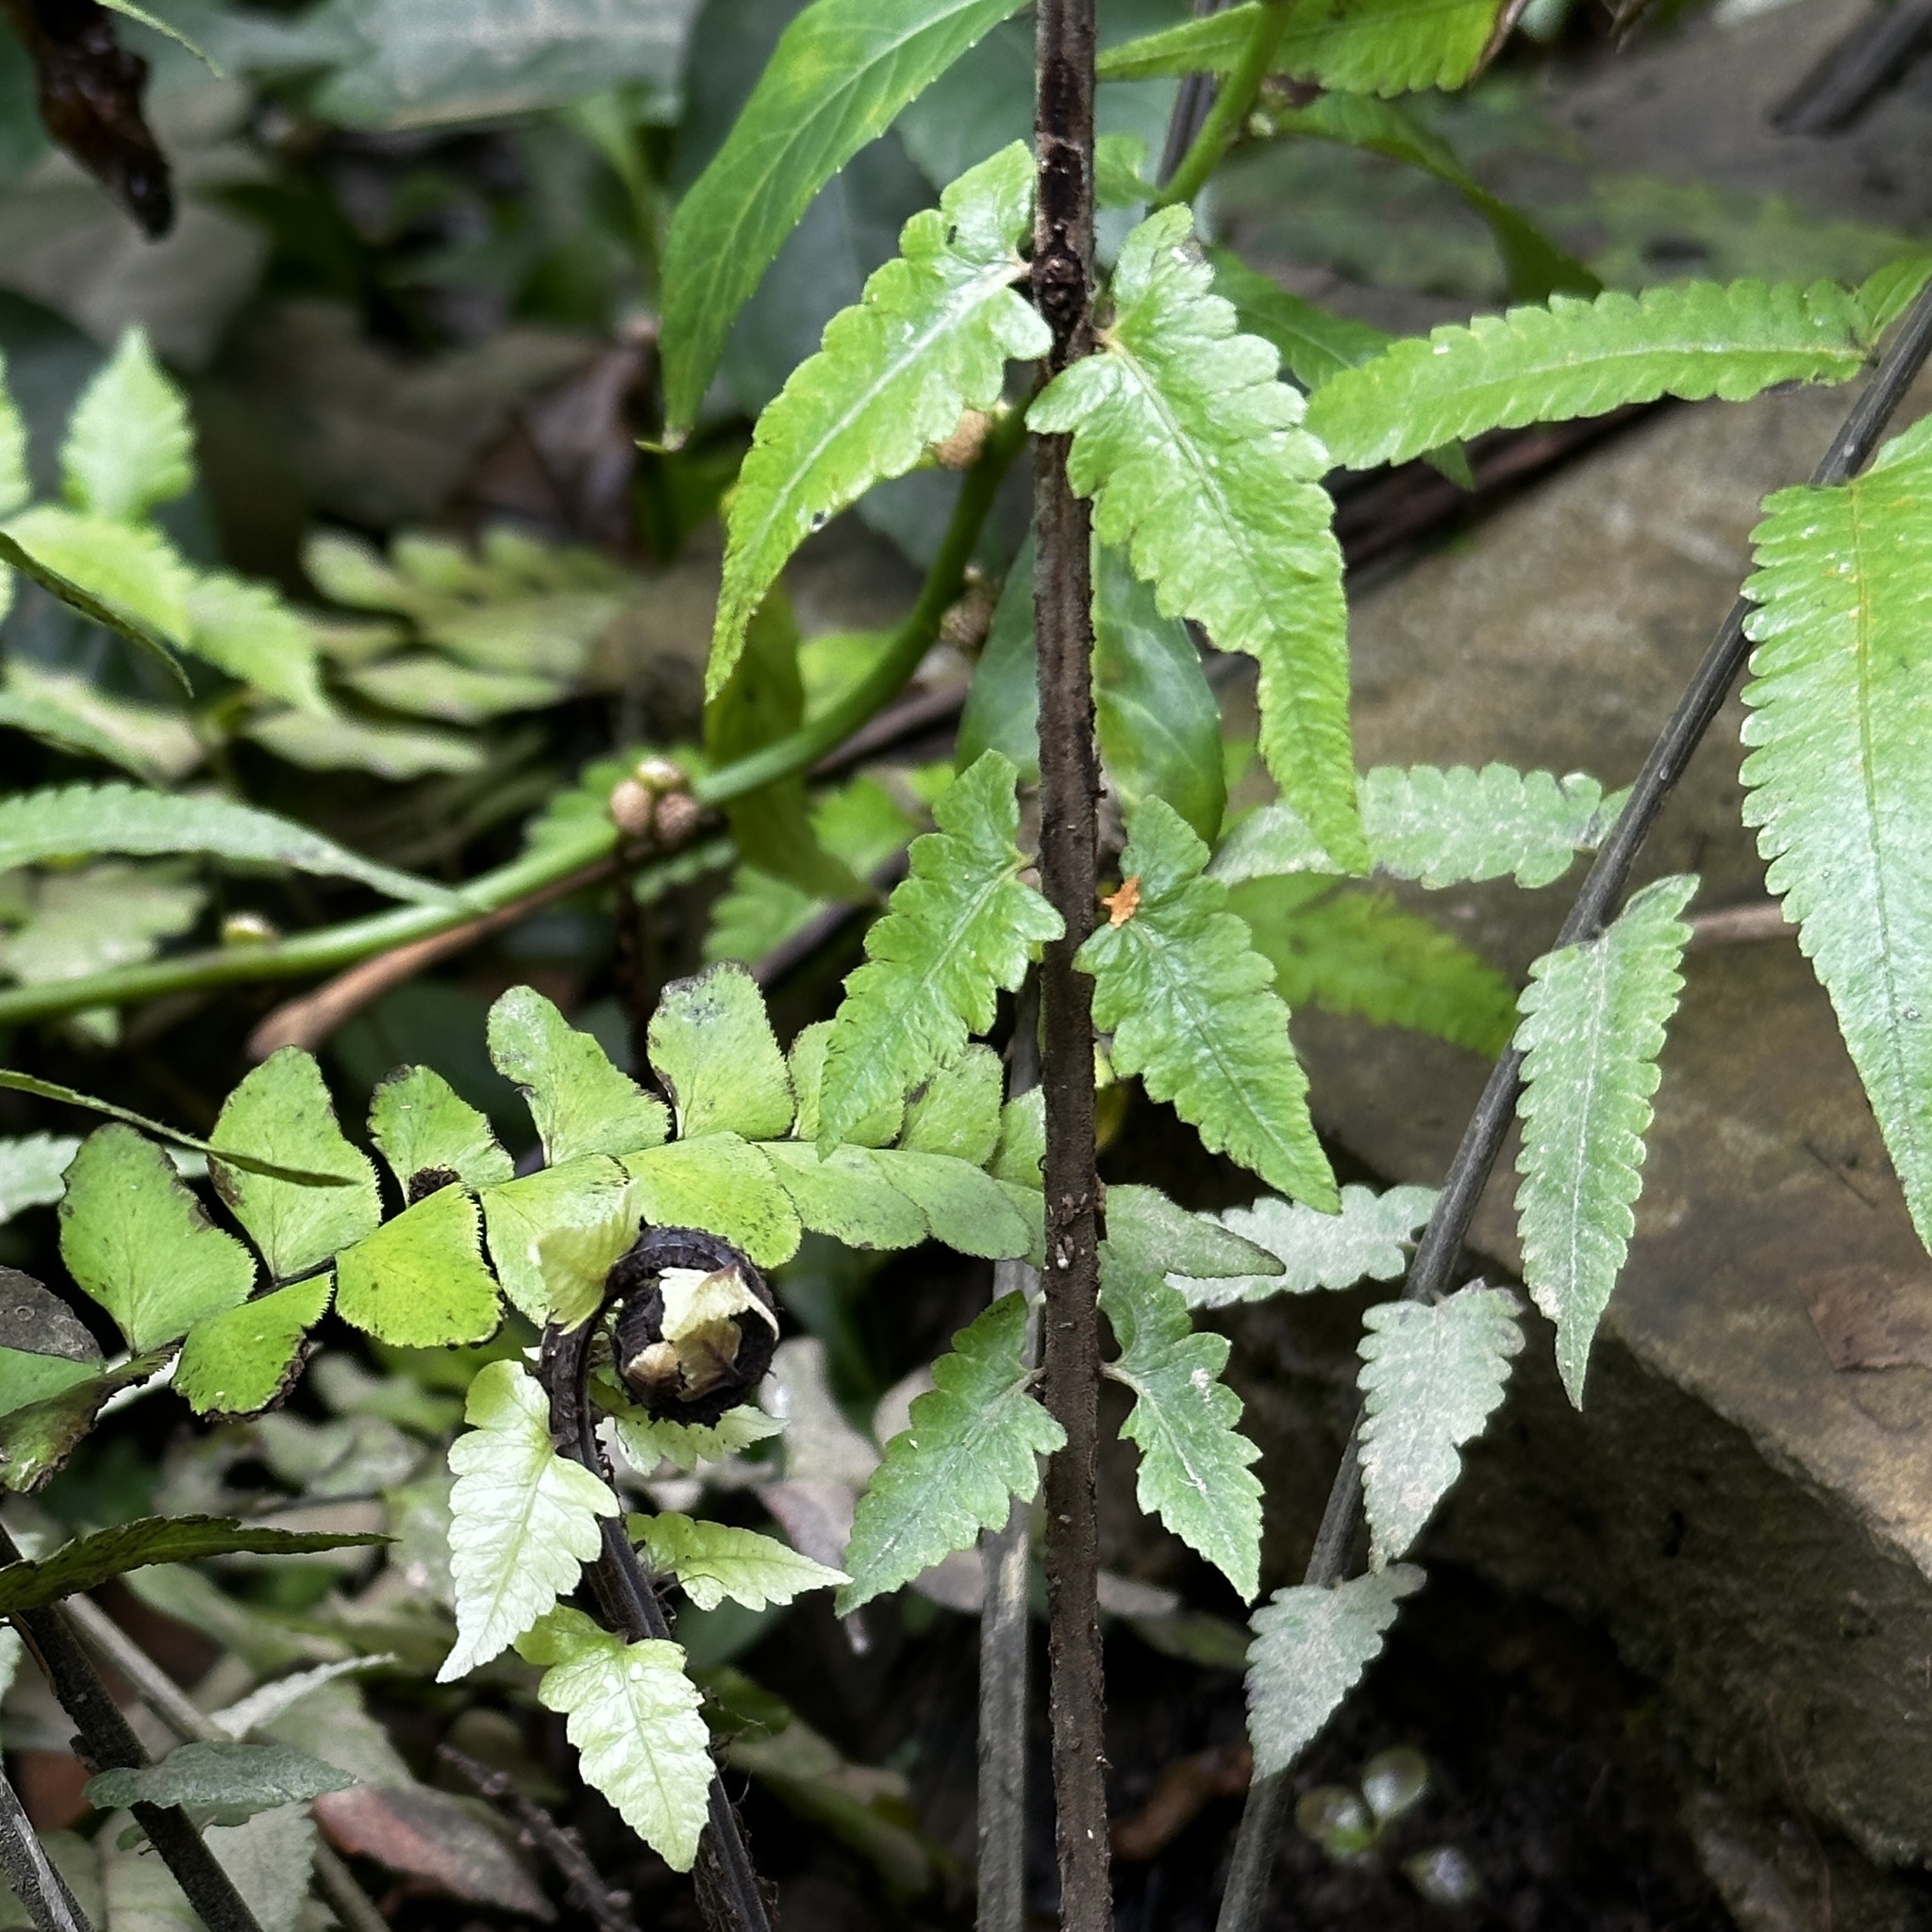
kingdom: Plantae
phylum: Tracheophyta
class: Polypodiopsida
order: Polypodiales
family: Thelypteridaceae
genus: Christella
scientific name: Christella subpubescens
